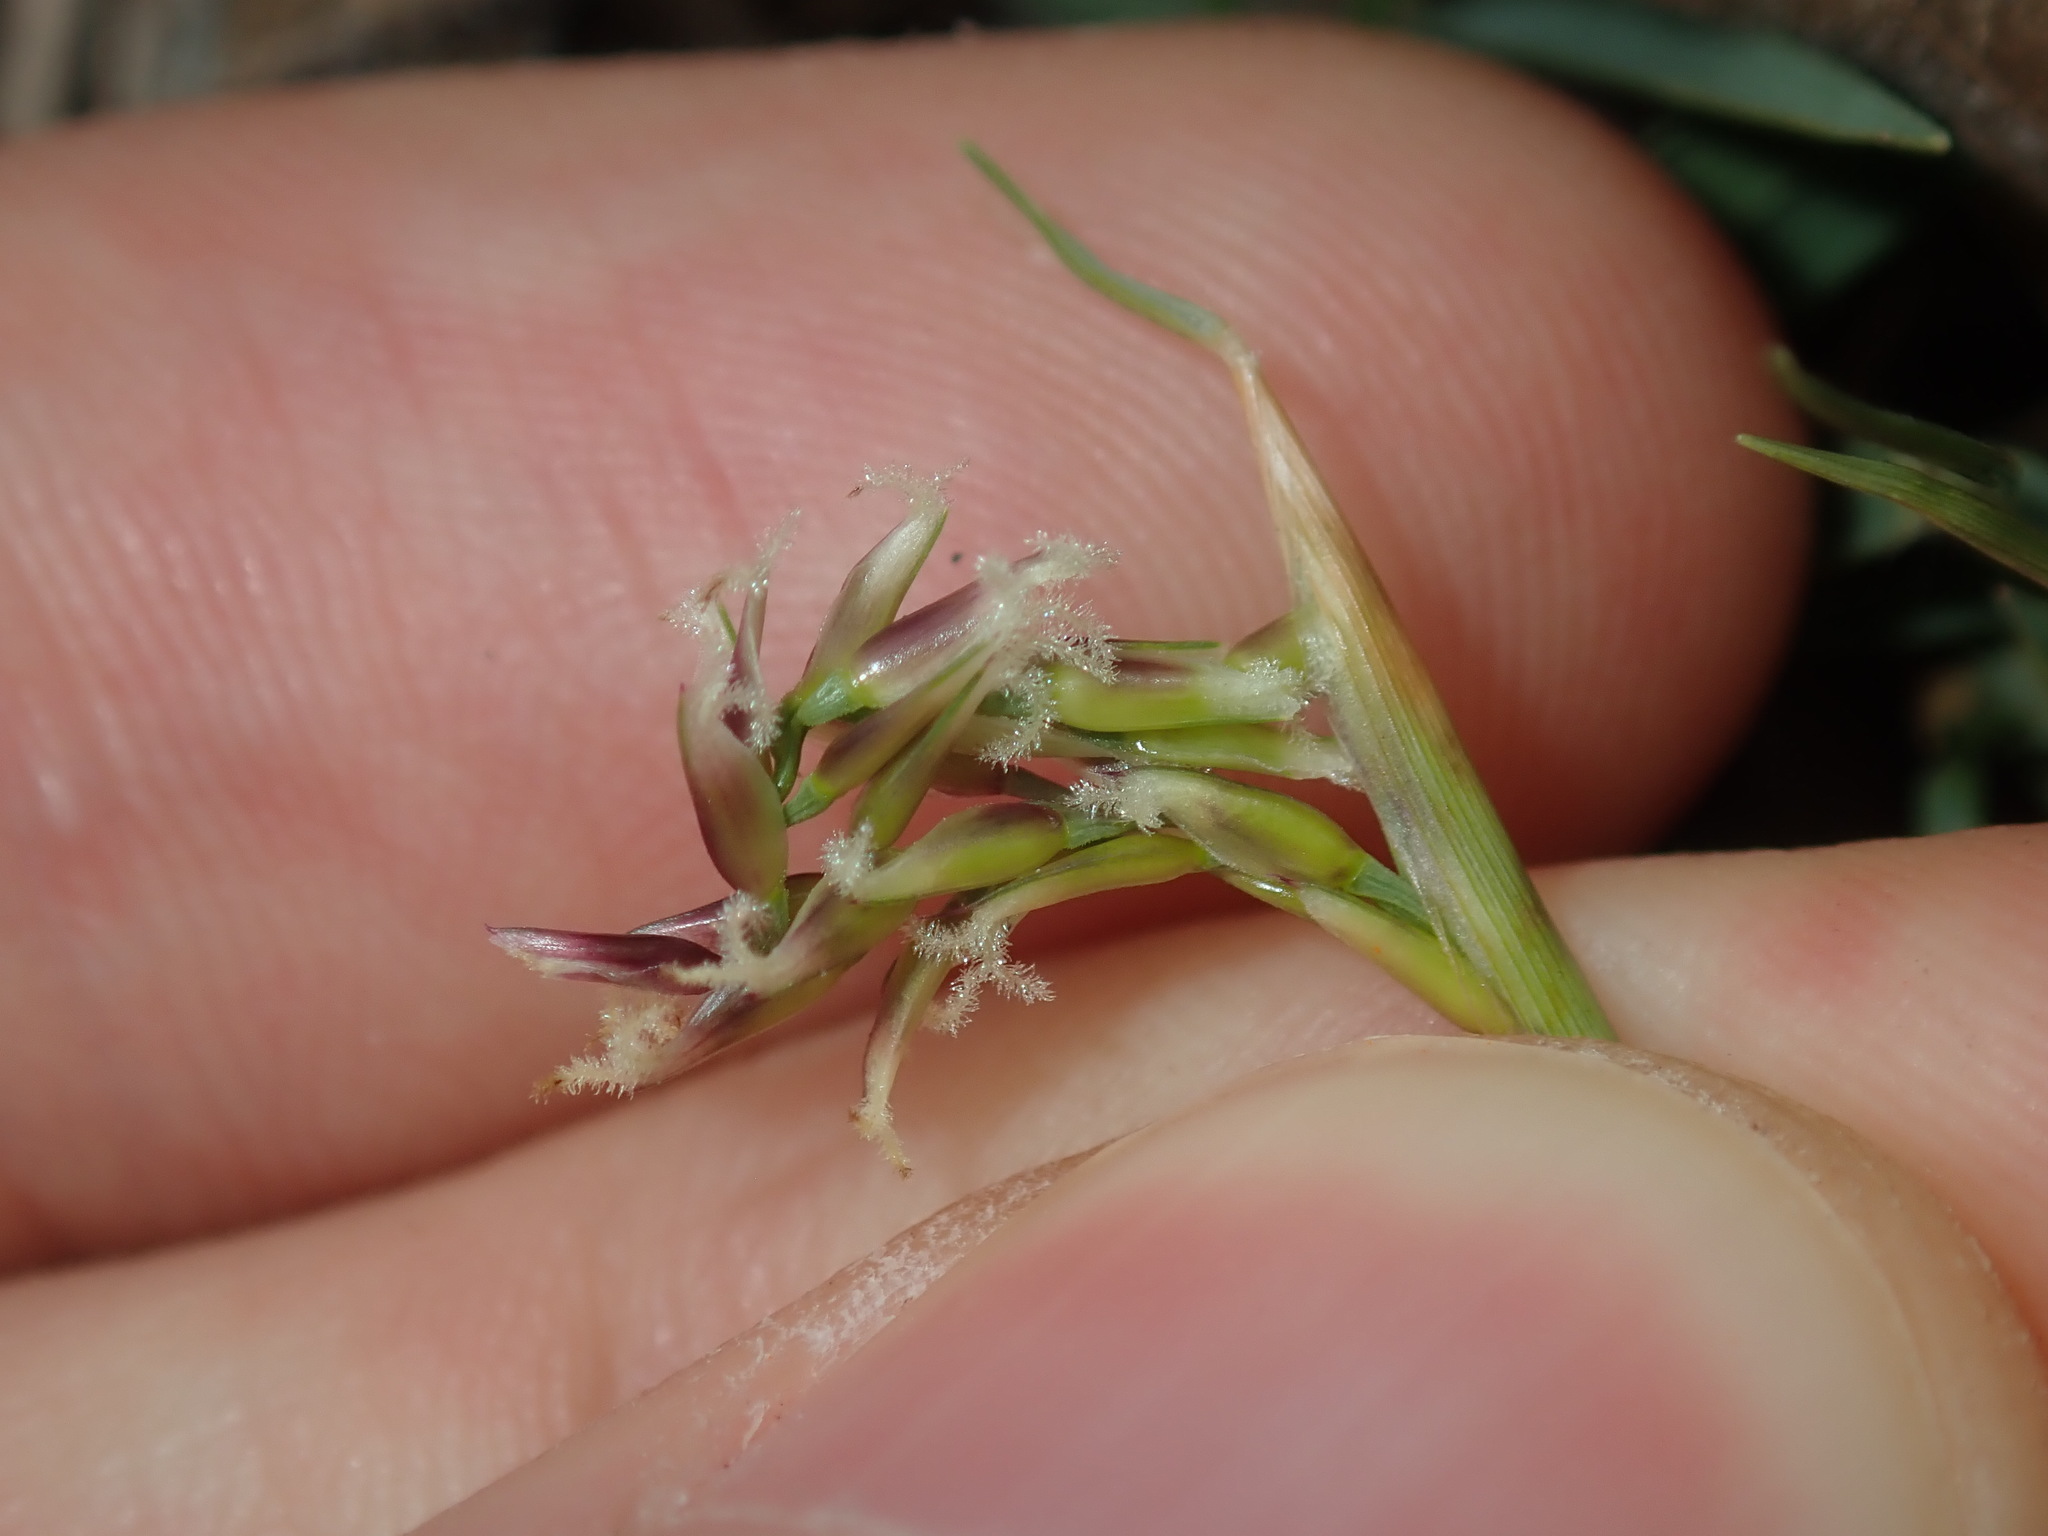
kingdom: Plantae
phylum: Tracheophyta
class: Liliopsida
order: Poales
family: Poaceae
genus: Zoysia
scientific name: Zoysia macrantha
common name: Korean lawn grass
